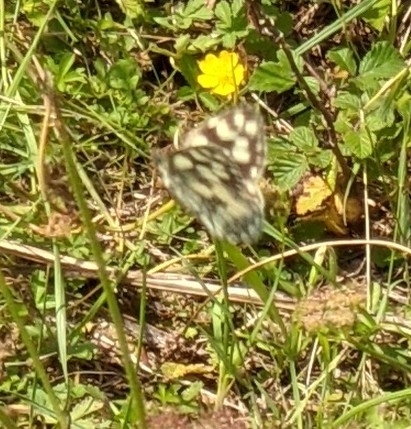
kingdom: Animalia
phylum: Arthropoda
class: Insecta
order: Lepidoptera
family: Nymphalidae
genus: Melanargia
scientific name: Melanargia galathea
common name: Marbled white
